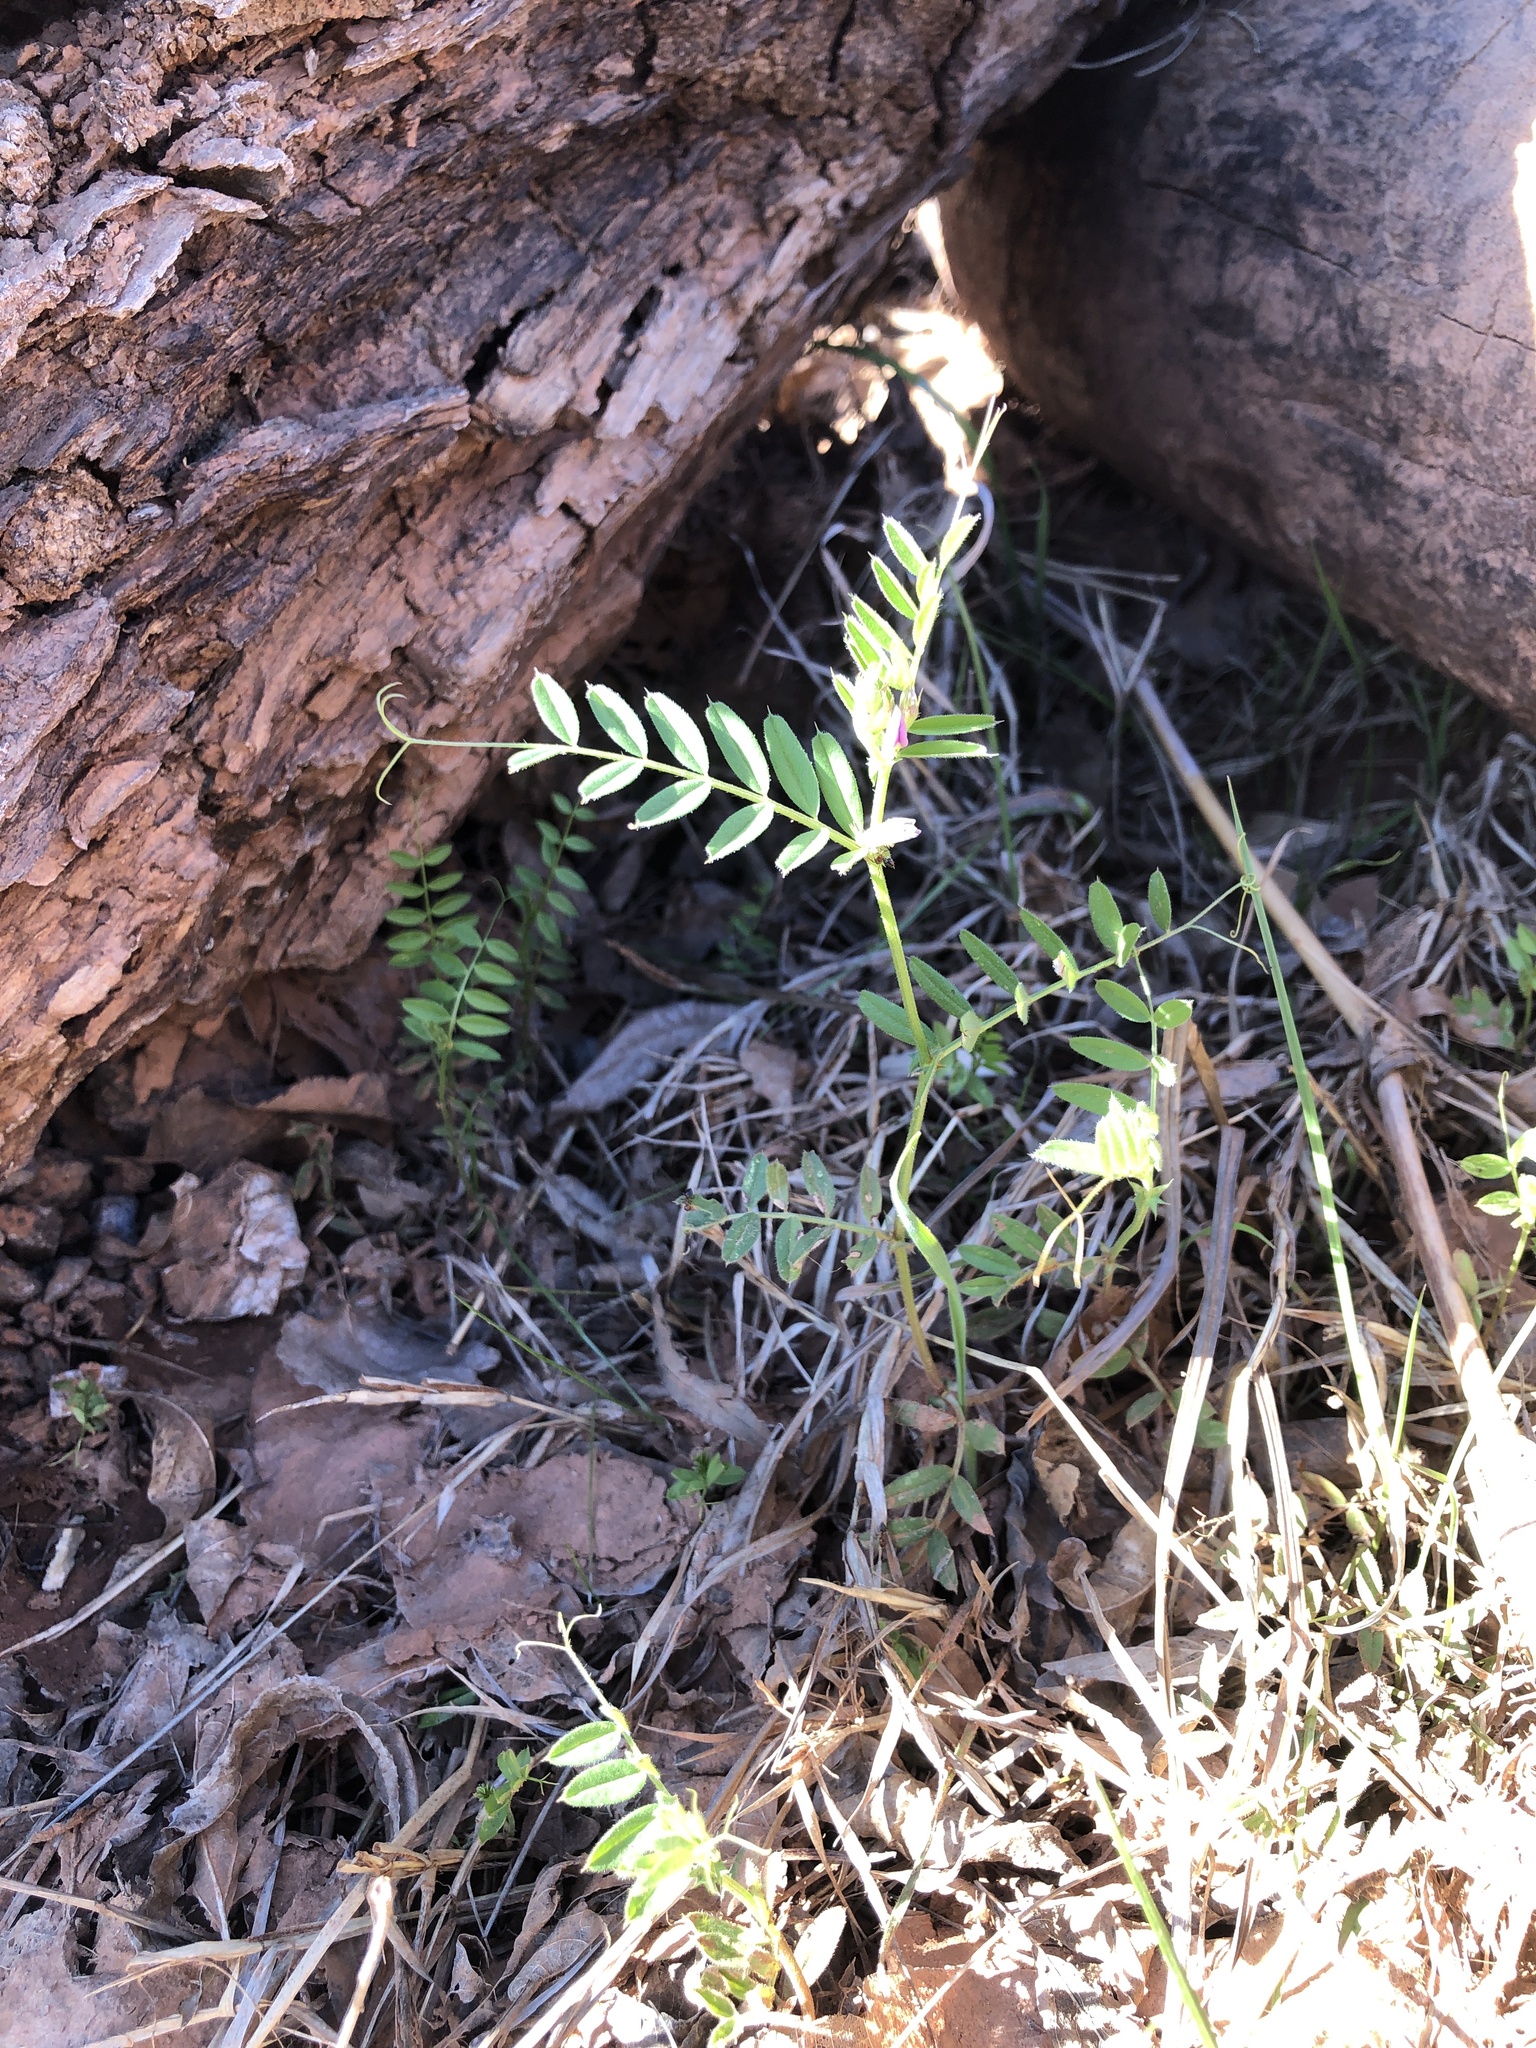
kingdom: Plantae
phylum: Tracheophyta
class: Magnoliopsida
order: Fabales
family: Fabaceae
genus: Vicia
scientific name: Vicia sativa
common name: Garden vetch
